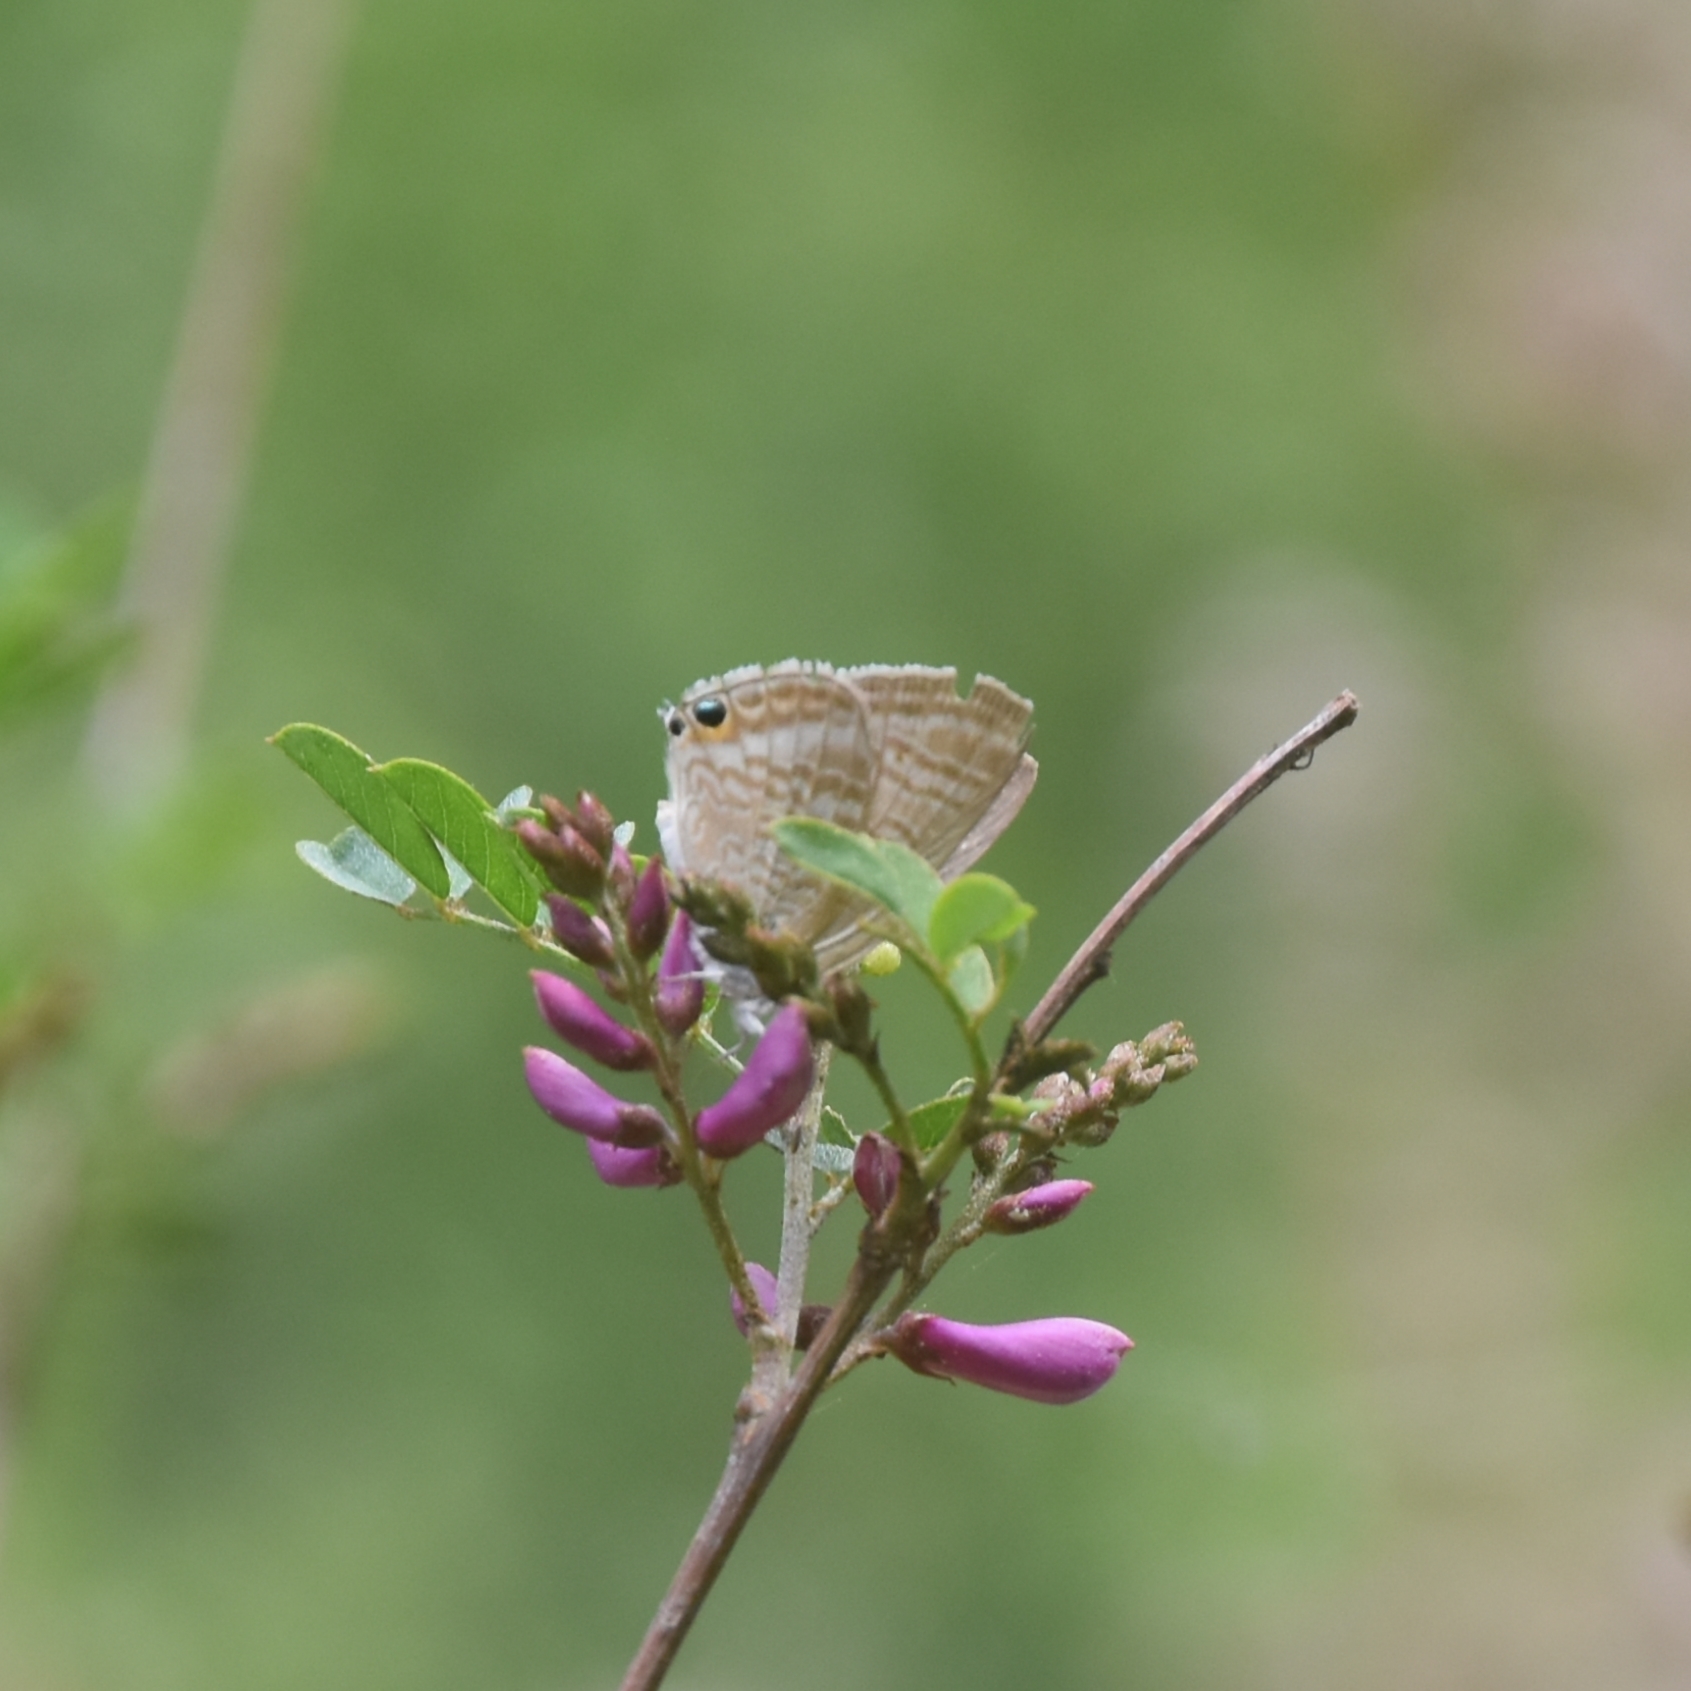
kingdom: Animalia
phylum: Arthropoda
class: Insecta
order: Lepidoptera
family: Lycaenidae
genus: Lampides
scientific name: Lampides boeticus
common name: Long-tailed blue
